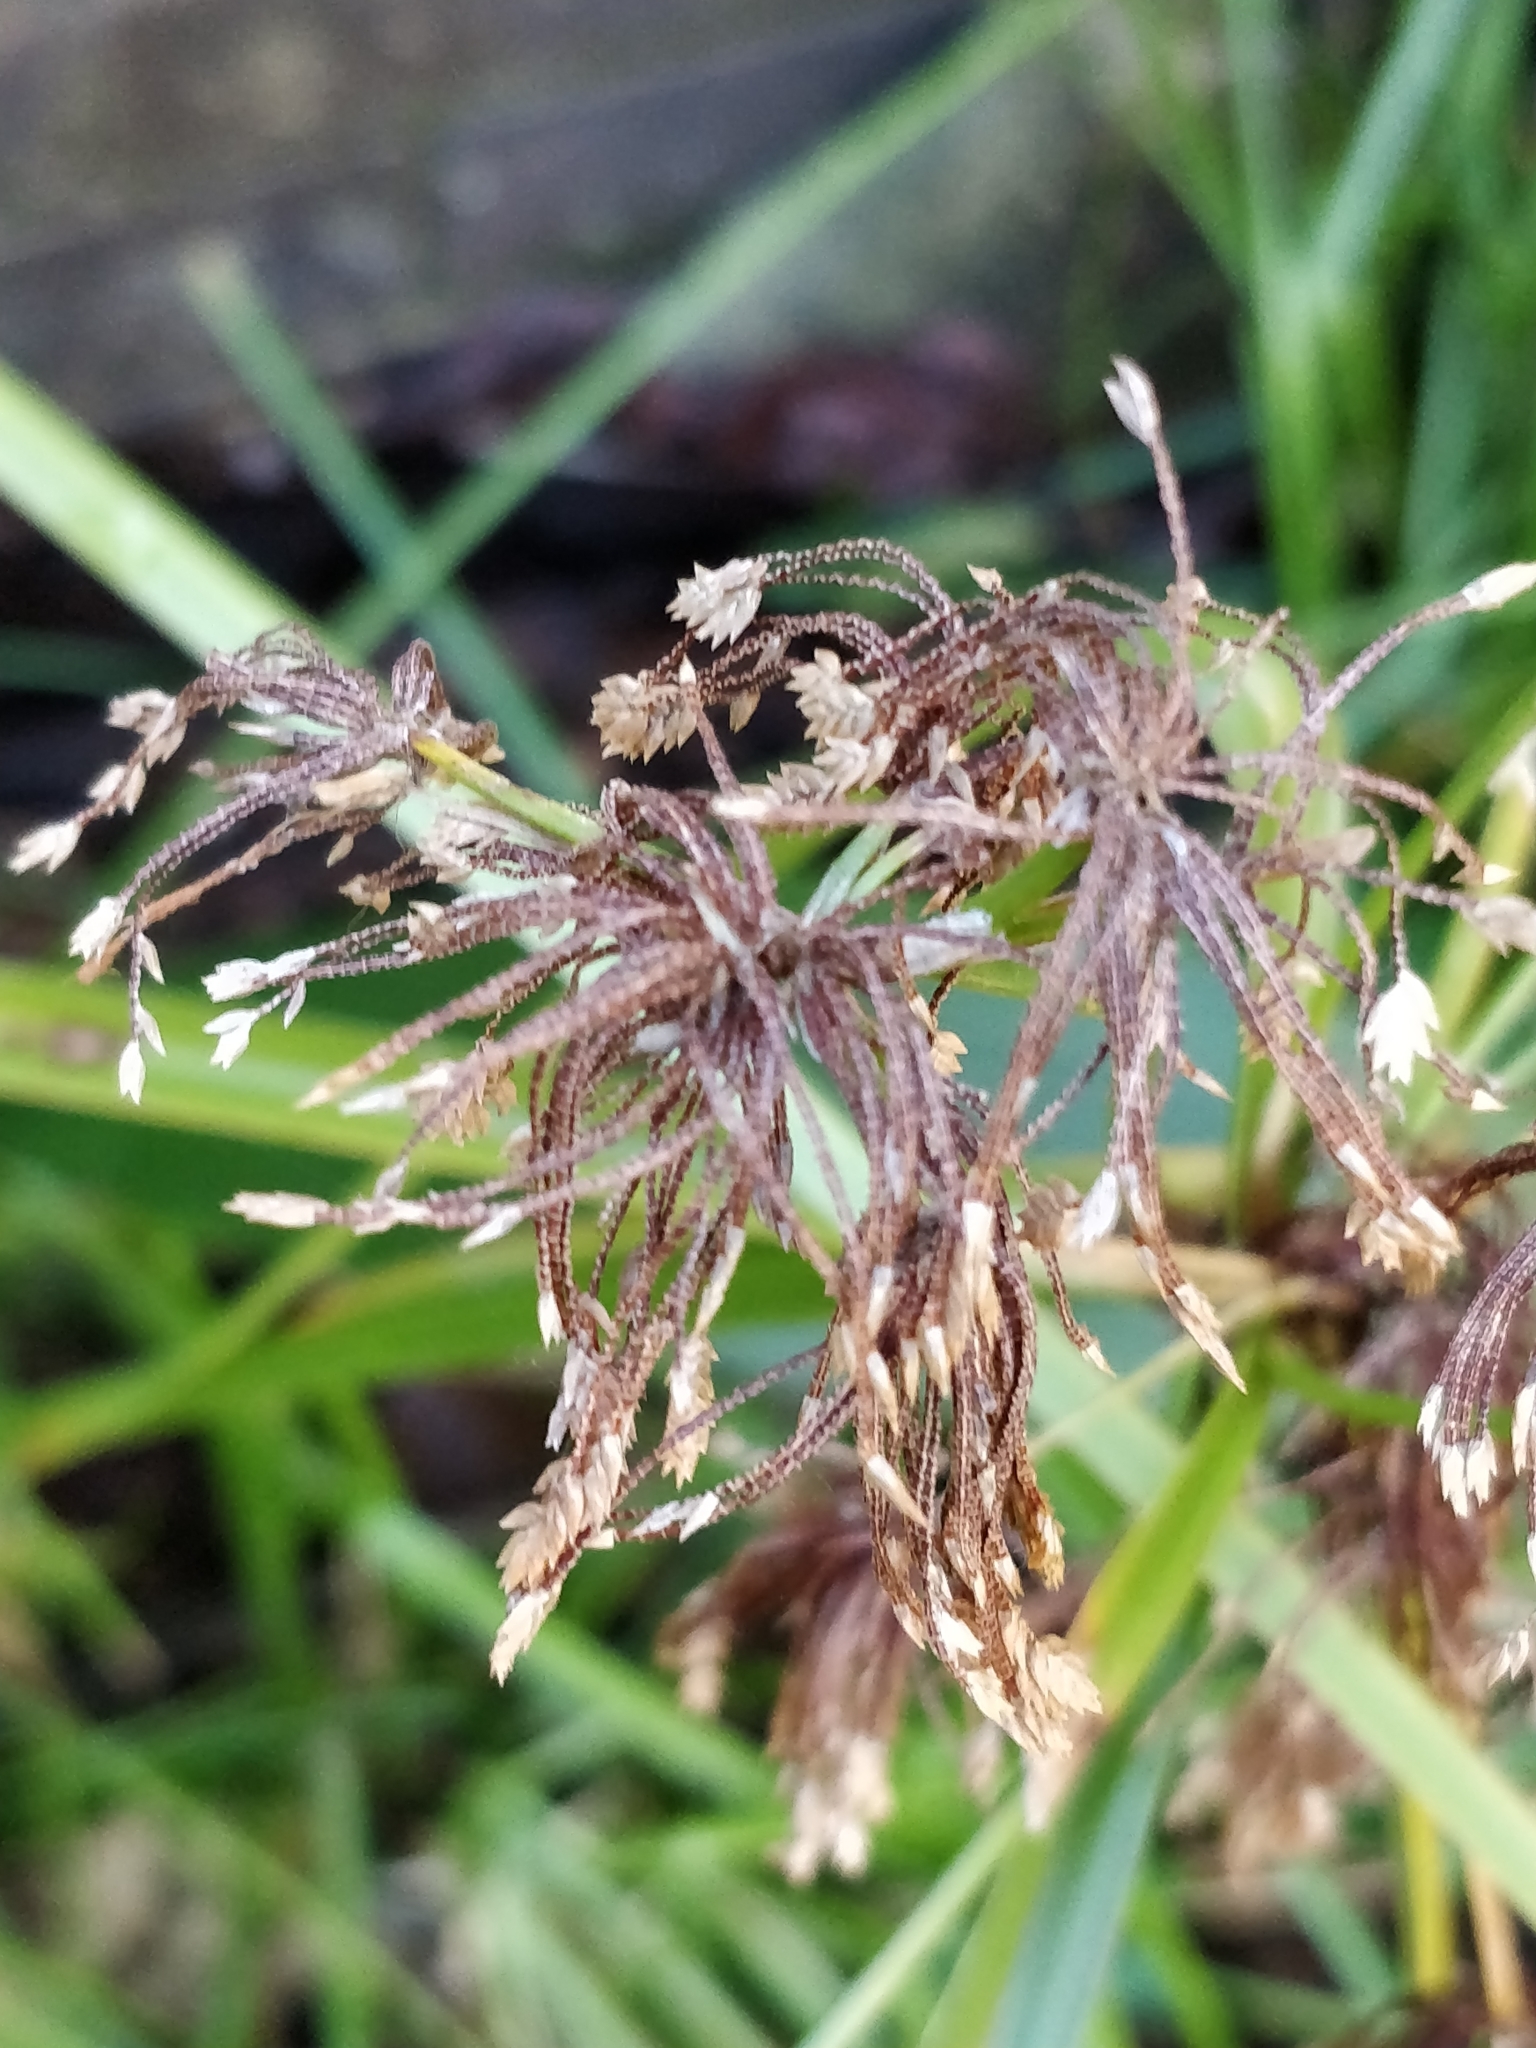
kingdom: Plantae
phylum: Tracheophyta
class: Liliopsida
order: Poales
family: Cyperaceae
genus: Cyperus
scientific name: Cyperus eragrostis
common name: Tall flatsedge
